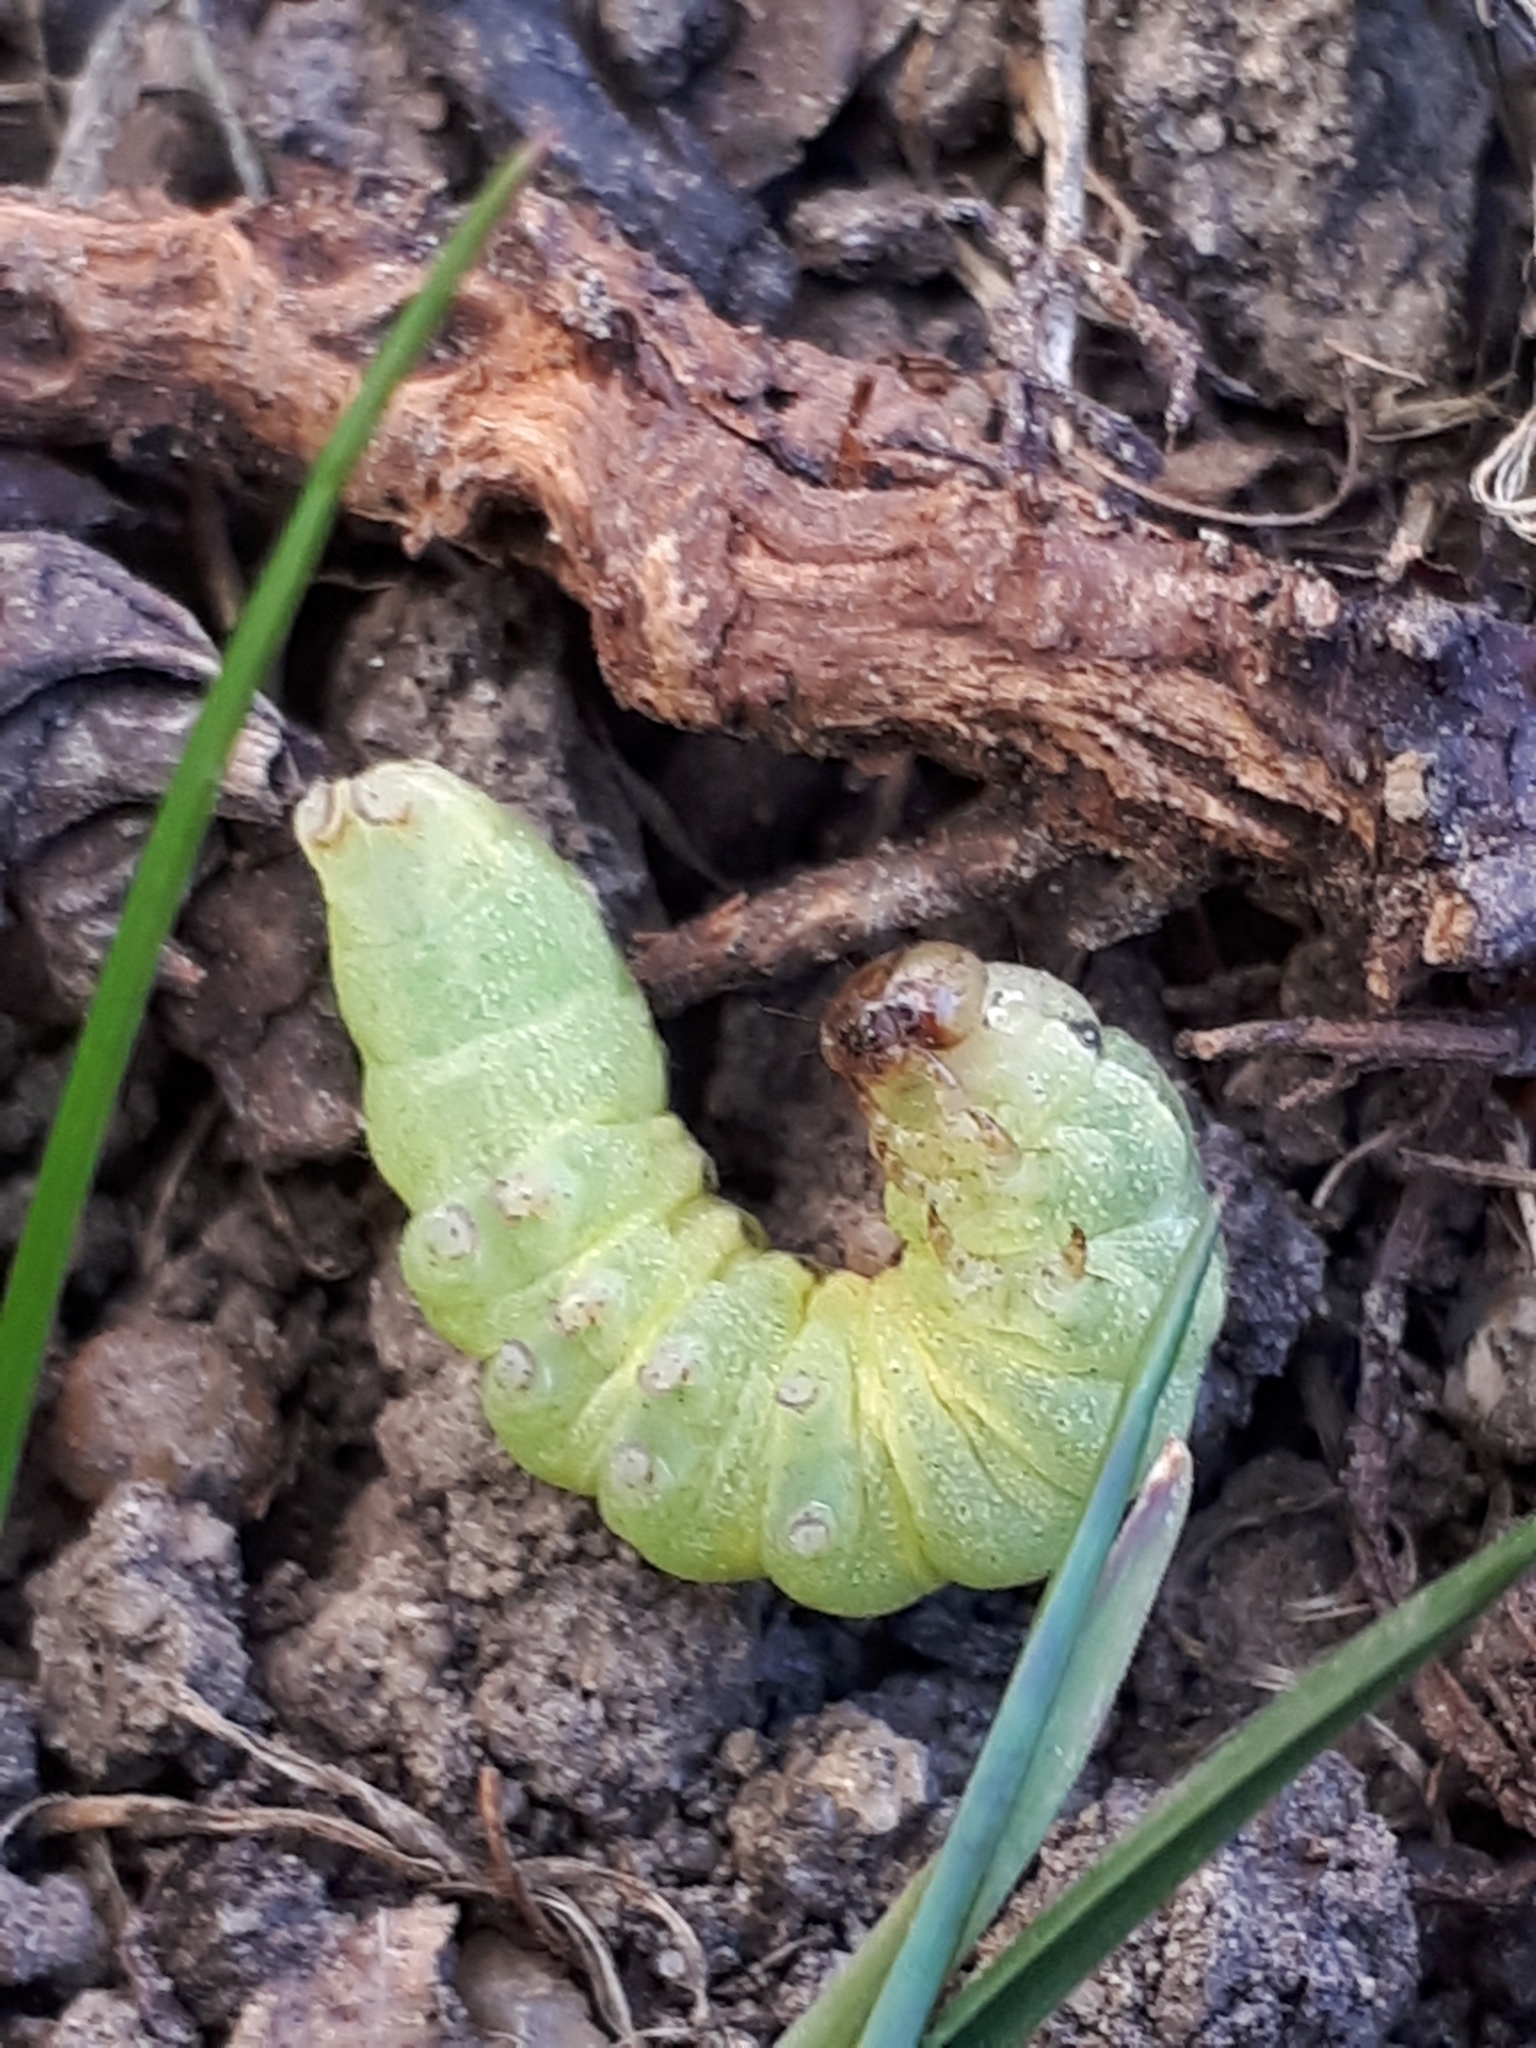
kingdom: Animalia
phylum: Arthropoda
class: Insecta
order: Lepidoptera
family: Noctuidae
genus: Noctua
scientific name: Noctua pronuba
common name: Large yellow underwing
